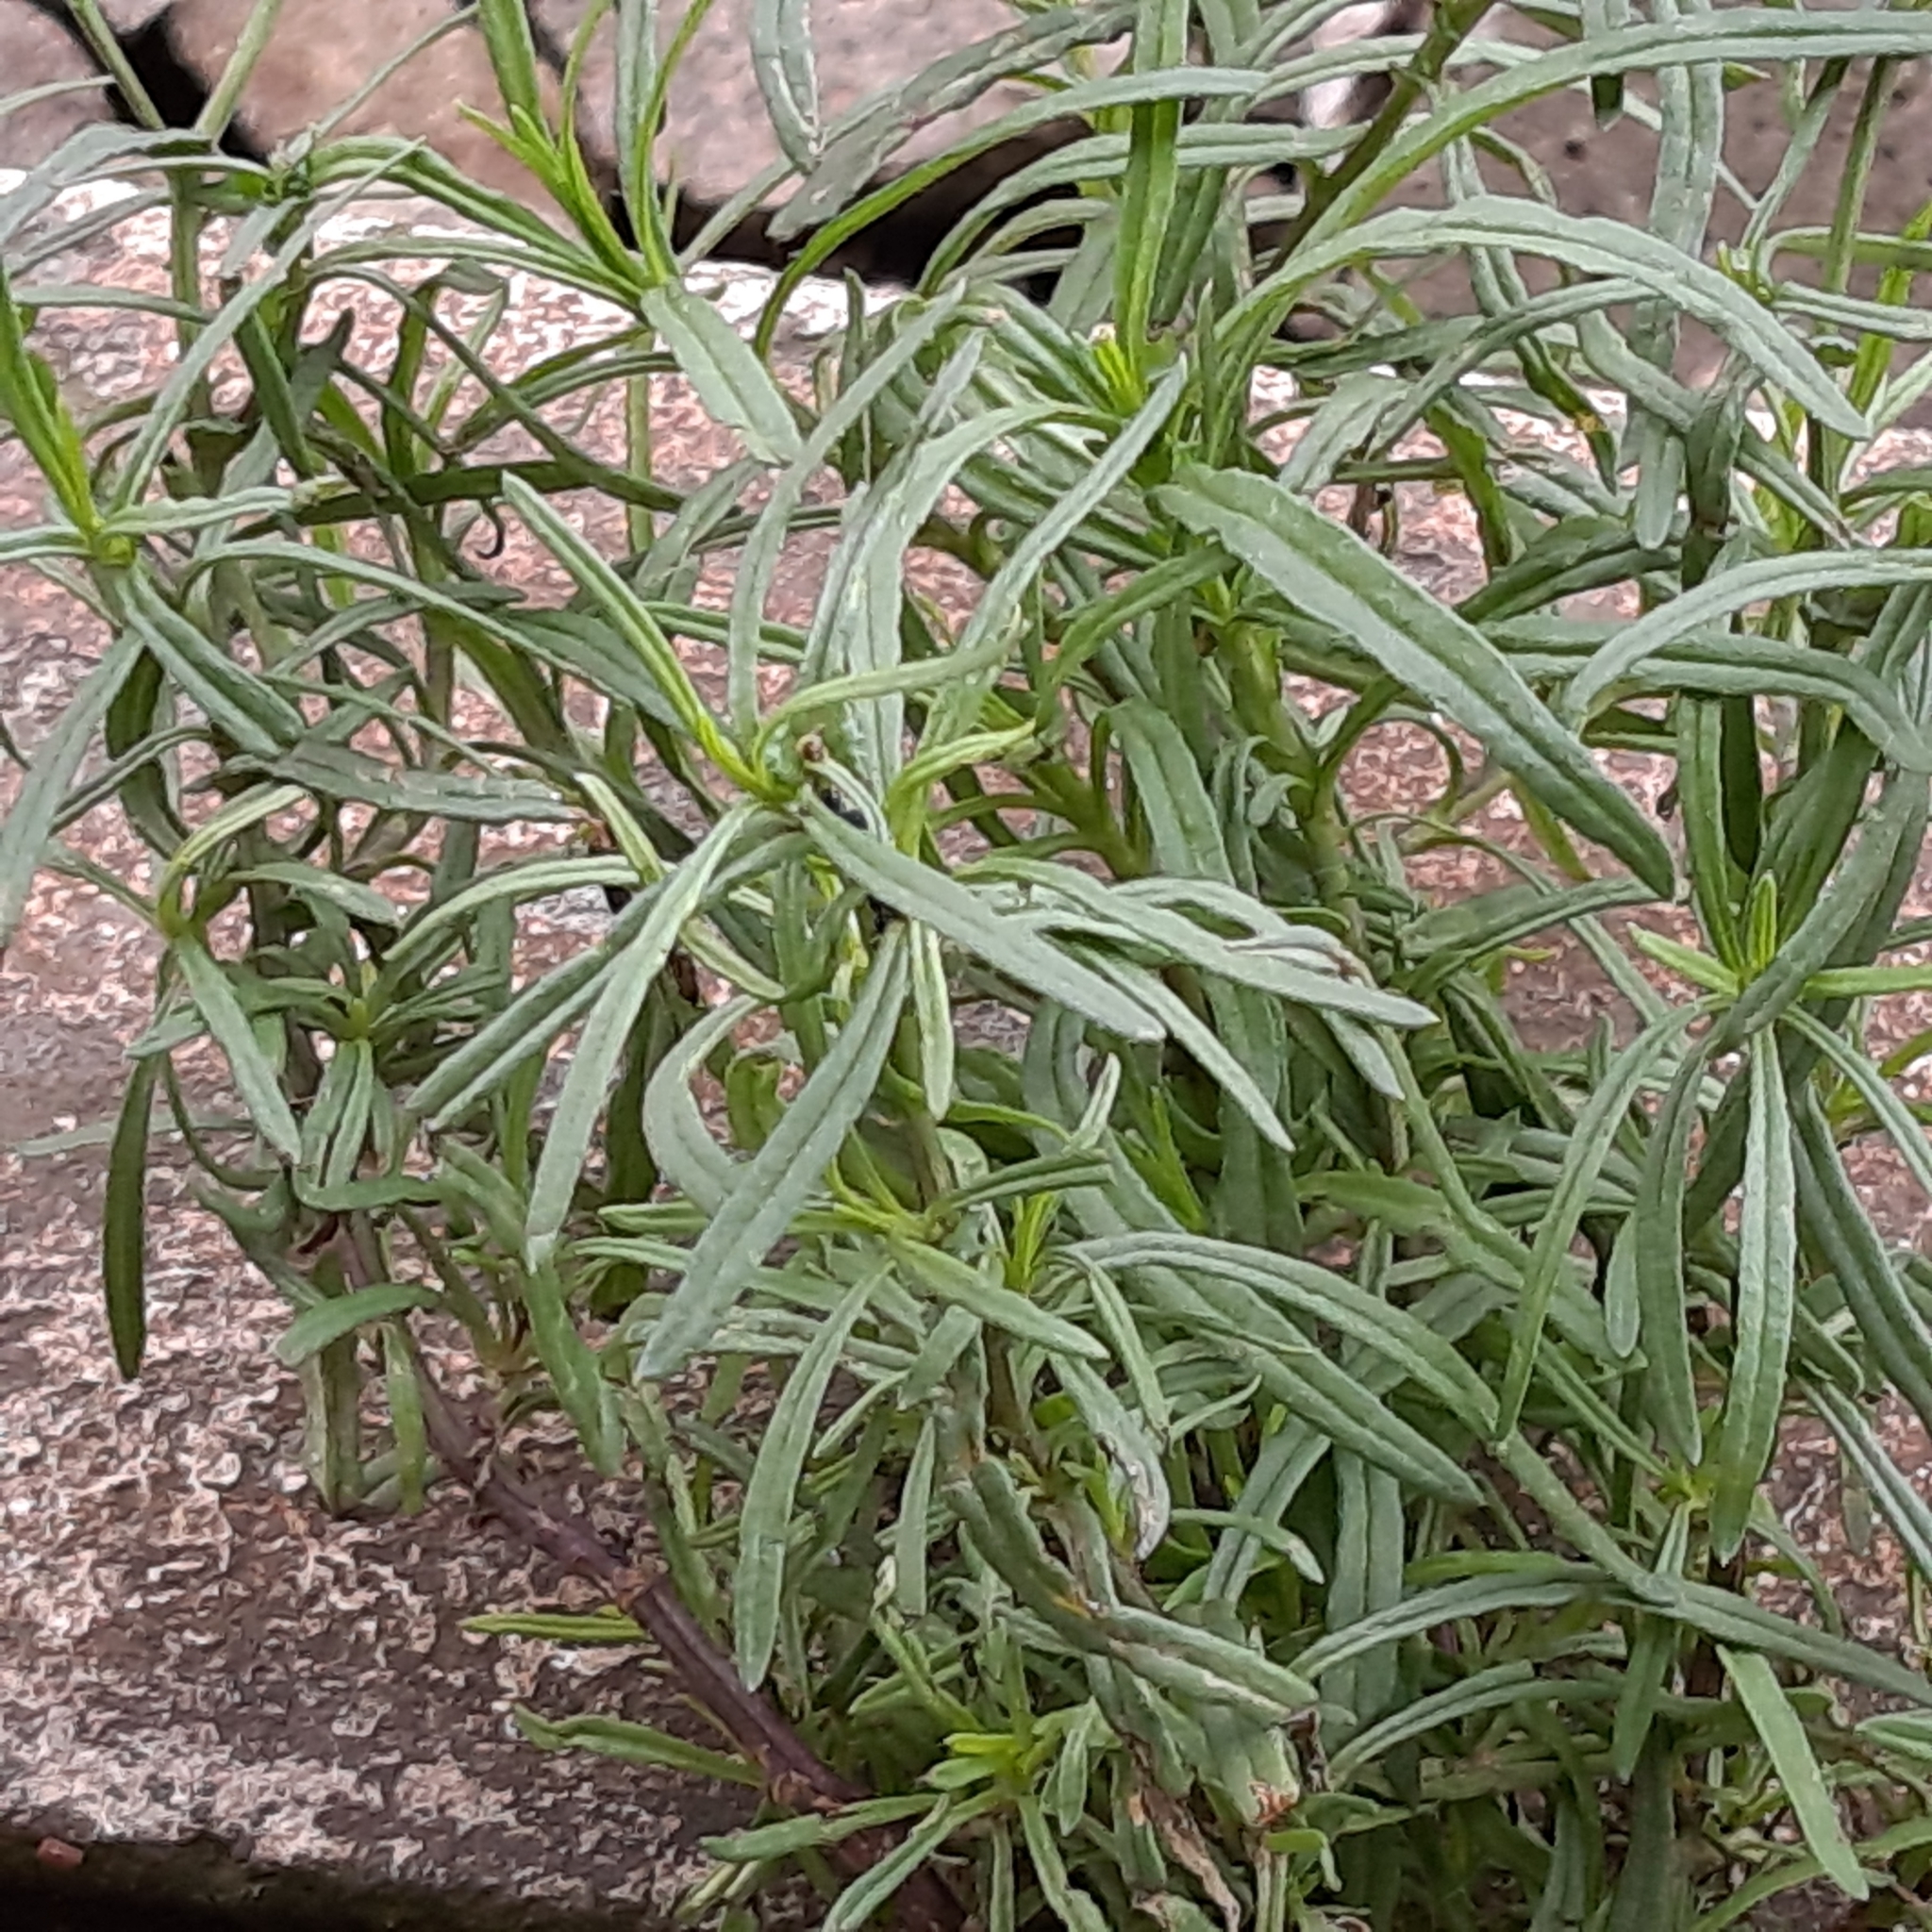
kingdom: Plantae
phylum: Tracheophyta
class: Magnoliopsida
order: Asterales
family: Asteraceae
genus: Senecio
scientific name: Senecio inaequidens
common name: Narrow-leaved ragwort
